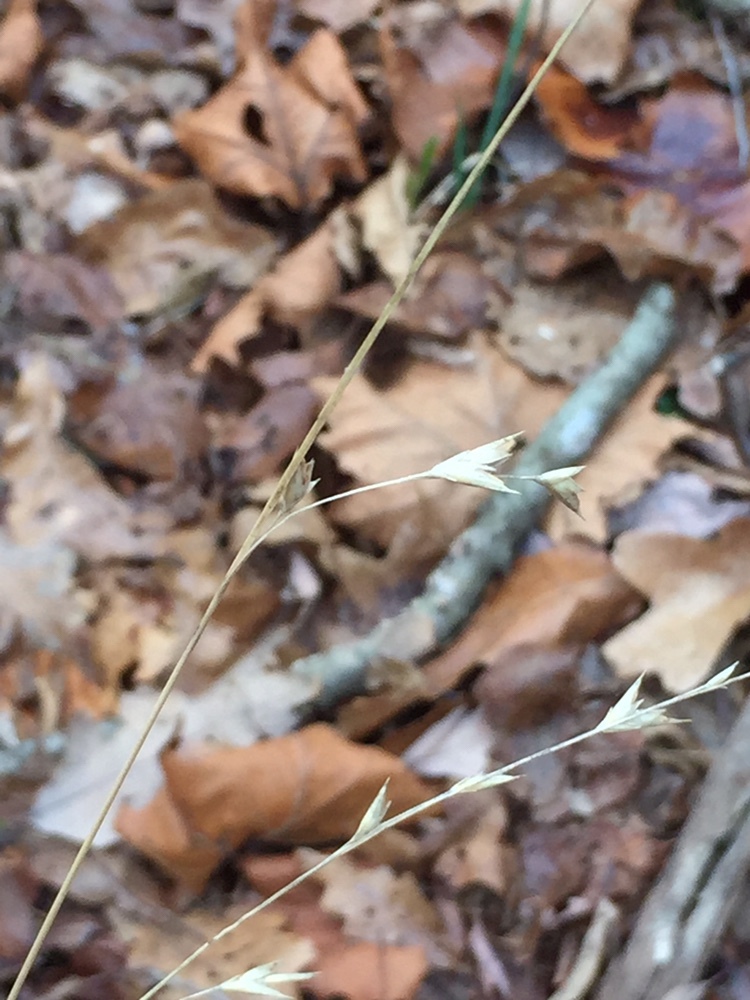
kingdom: Plantae
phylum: Tracheophyta
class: Liliopsida
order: Poales
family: Poaceae
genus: Diarrhena
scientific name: Diarrhena americana
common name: American beakgrain
